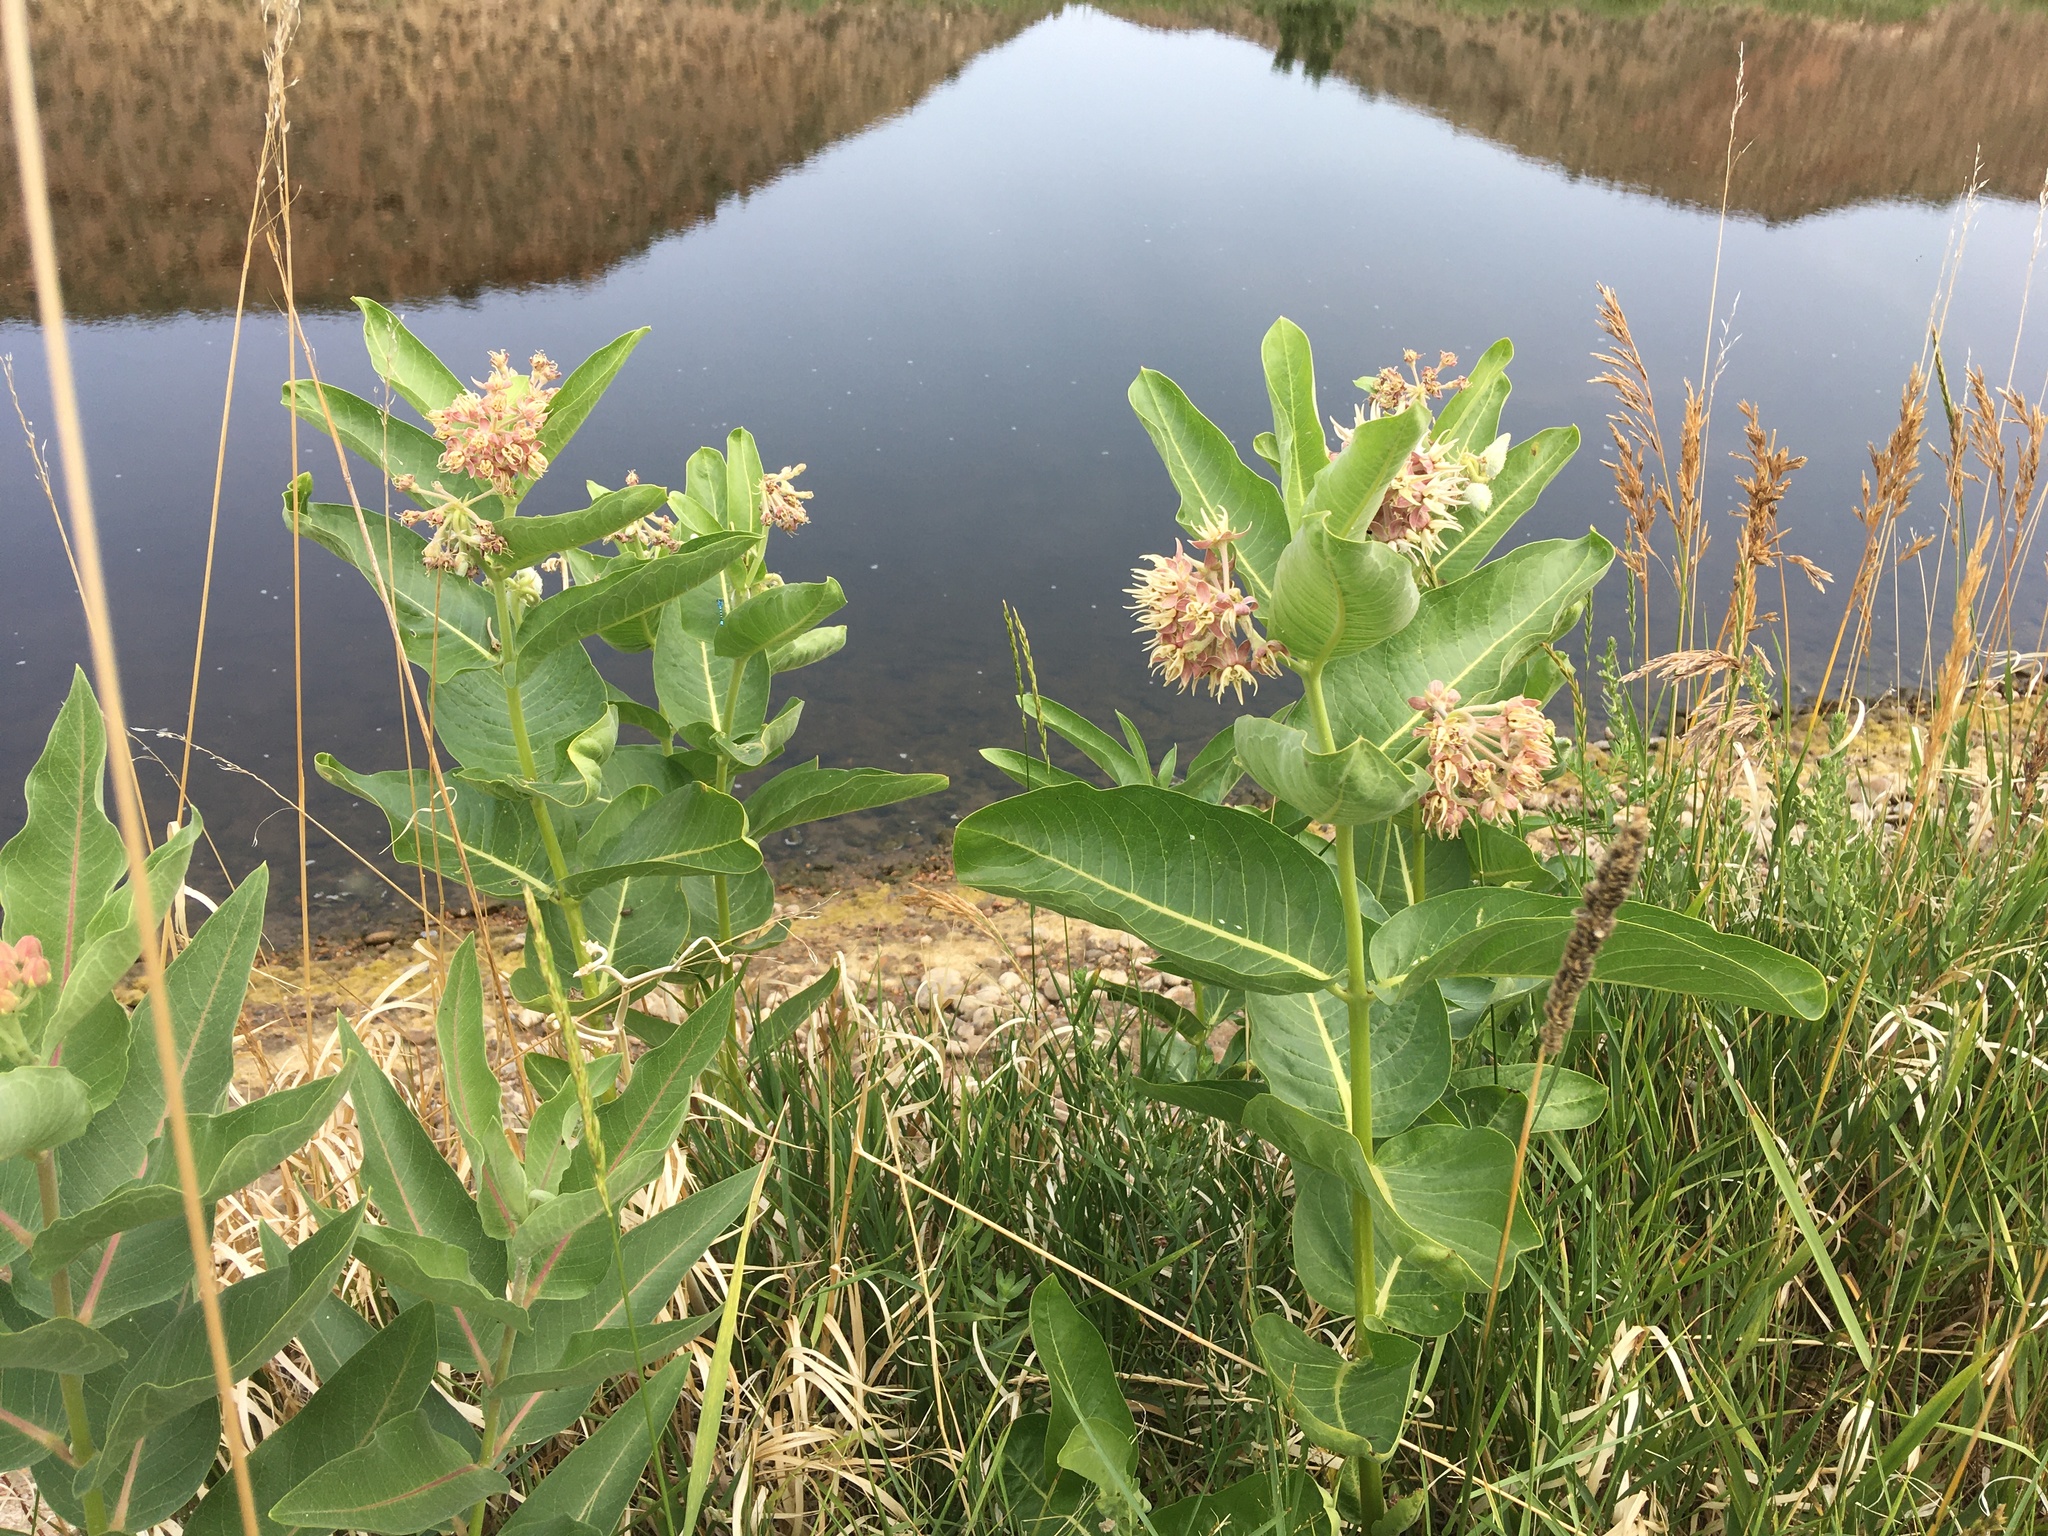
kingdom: Plantae
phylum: Tracheophyta
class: Magnoliopsida
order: Gentianales
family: Apocynaceae
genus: Asclepias
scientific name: Asclepias speciosa
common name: Showy milkweed
